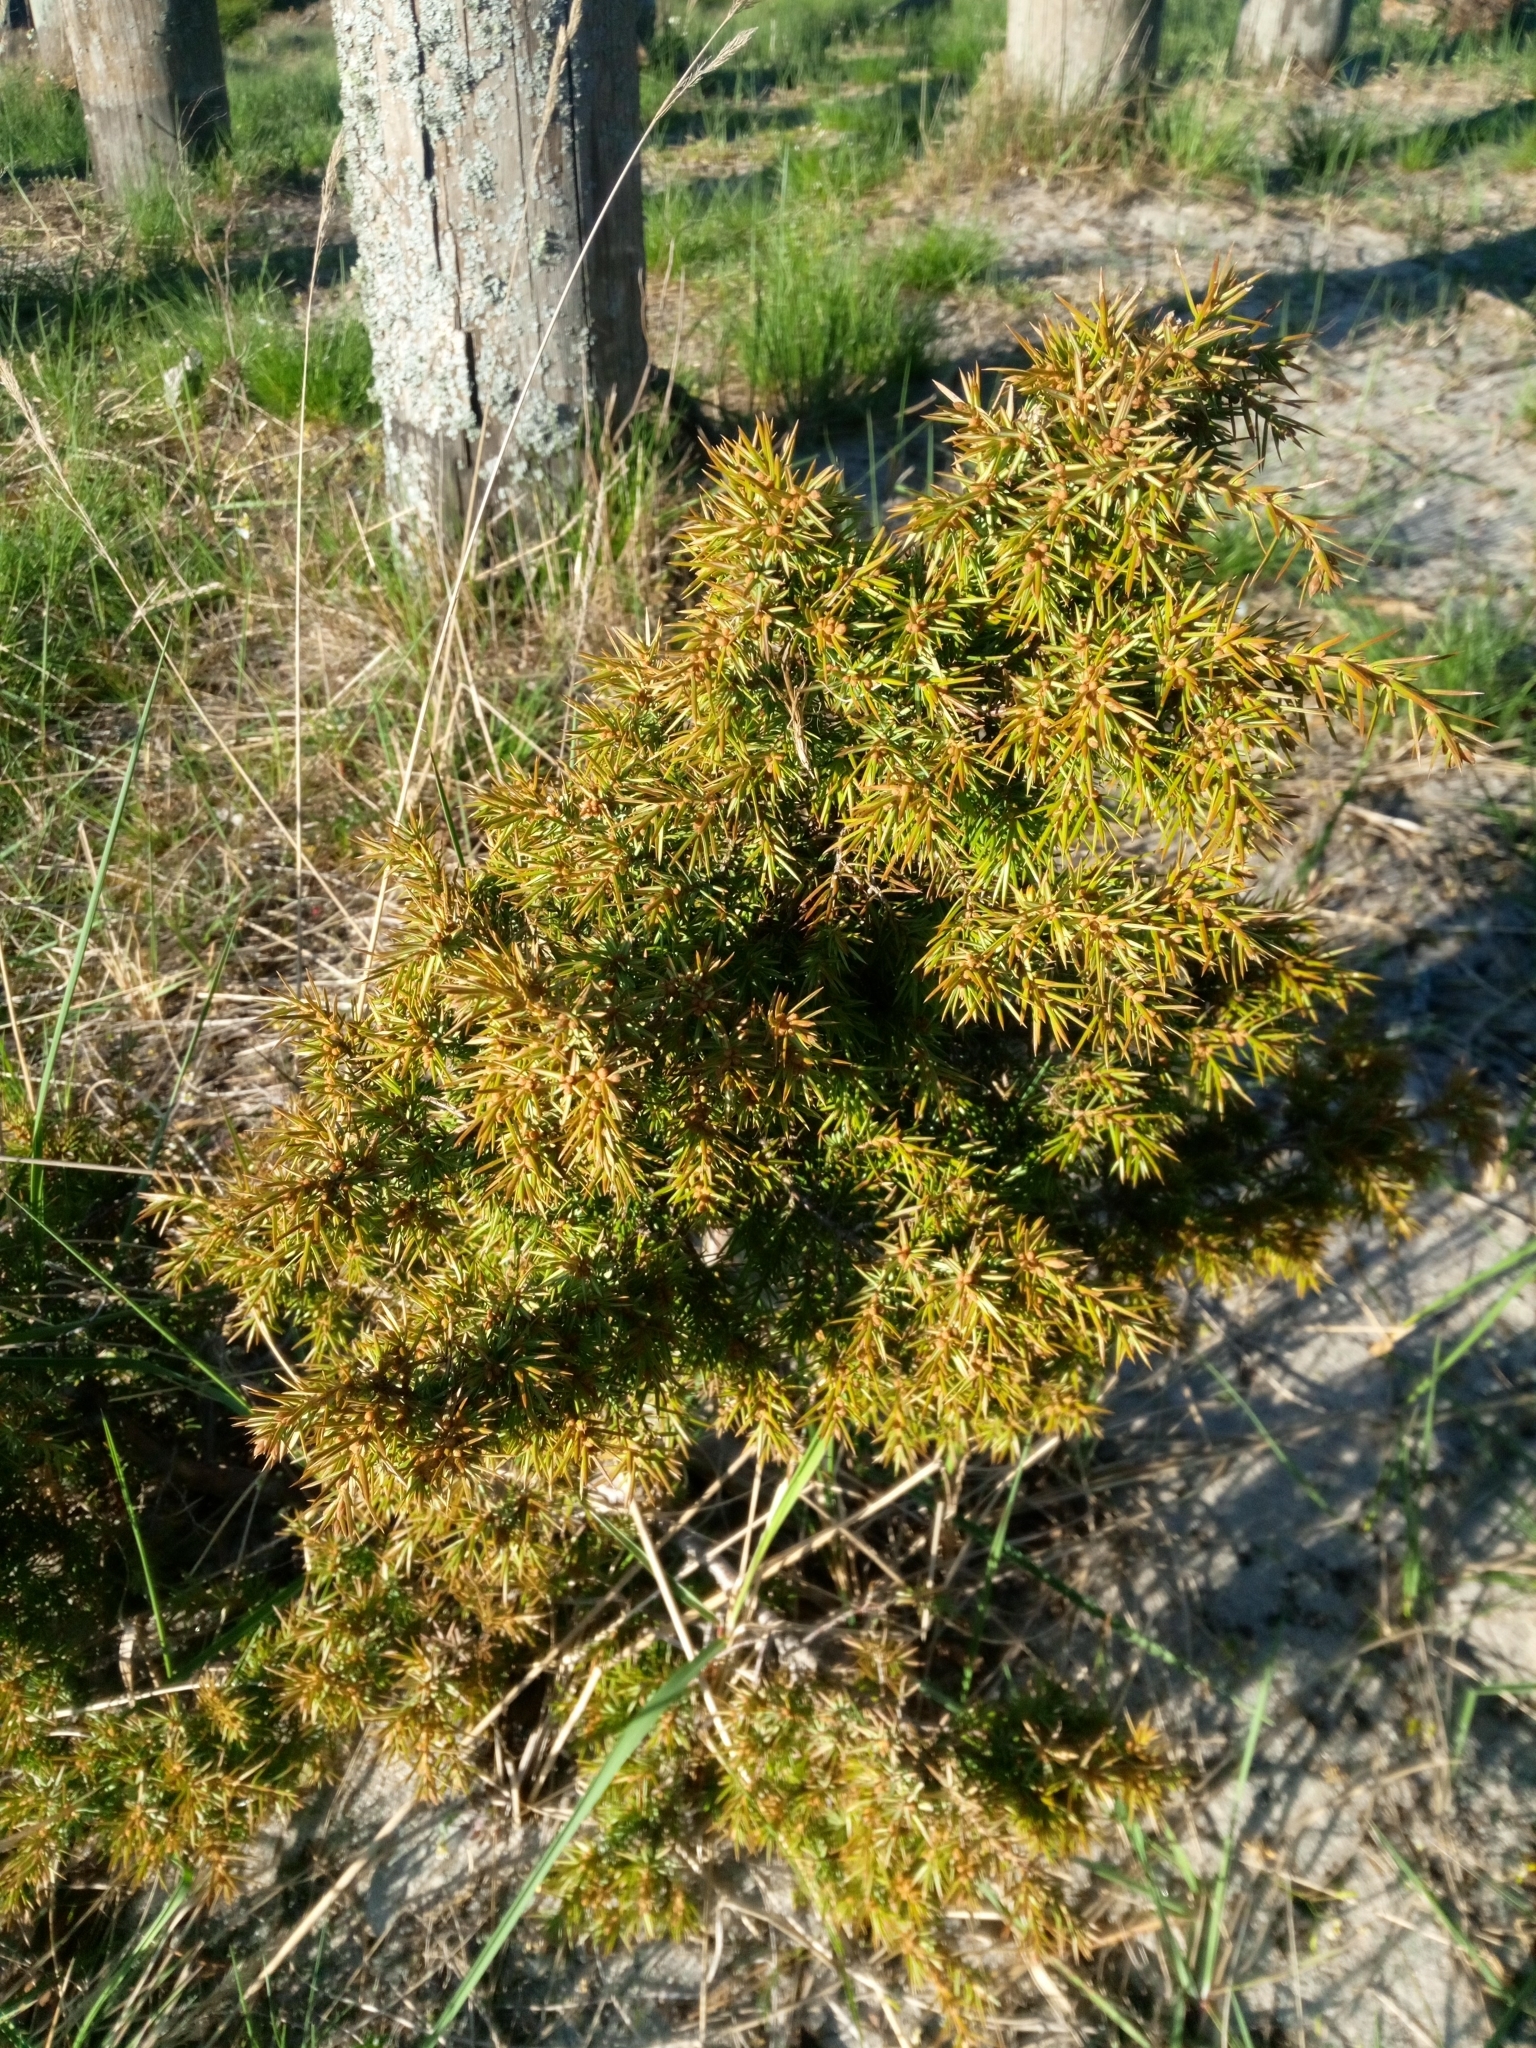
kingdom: Plantae
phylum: Tracheophyta
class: Pinopsida
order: Pinales
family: Cupressaceae
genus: Juniperus
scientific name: Juniperus communis
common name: Common juniper
